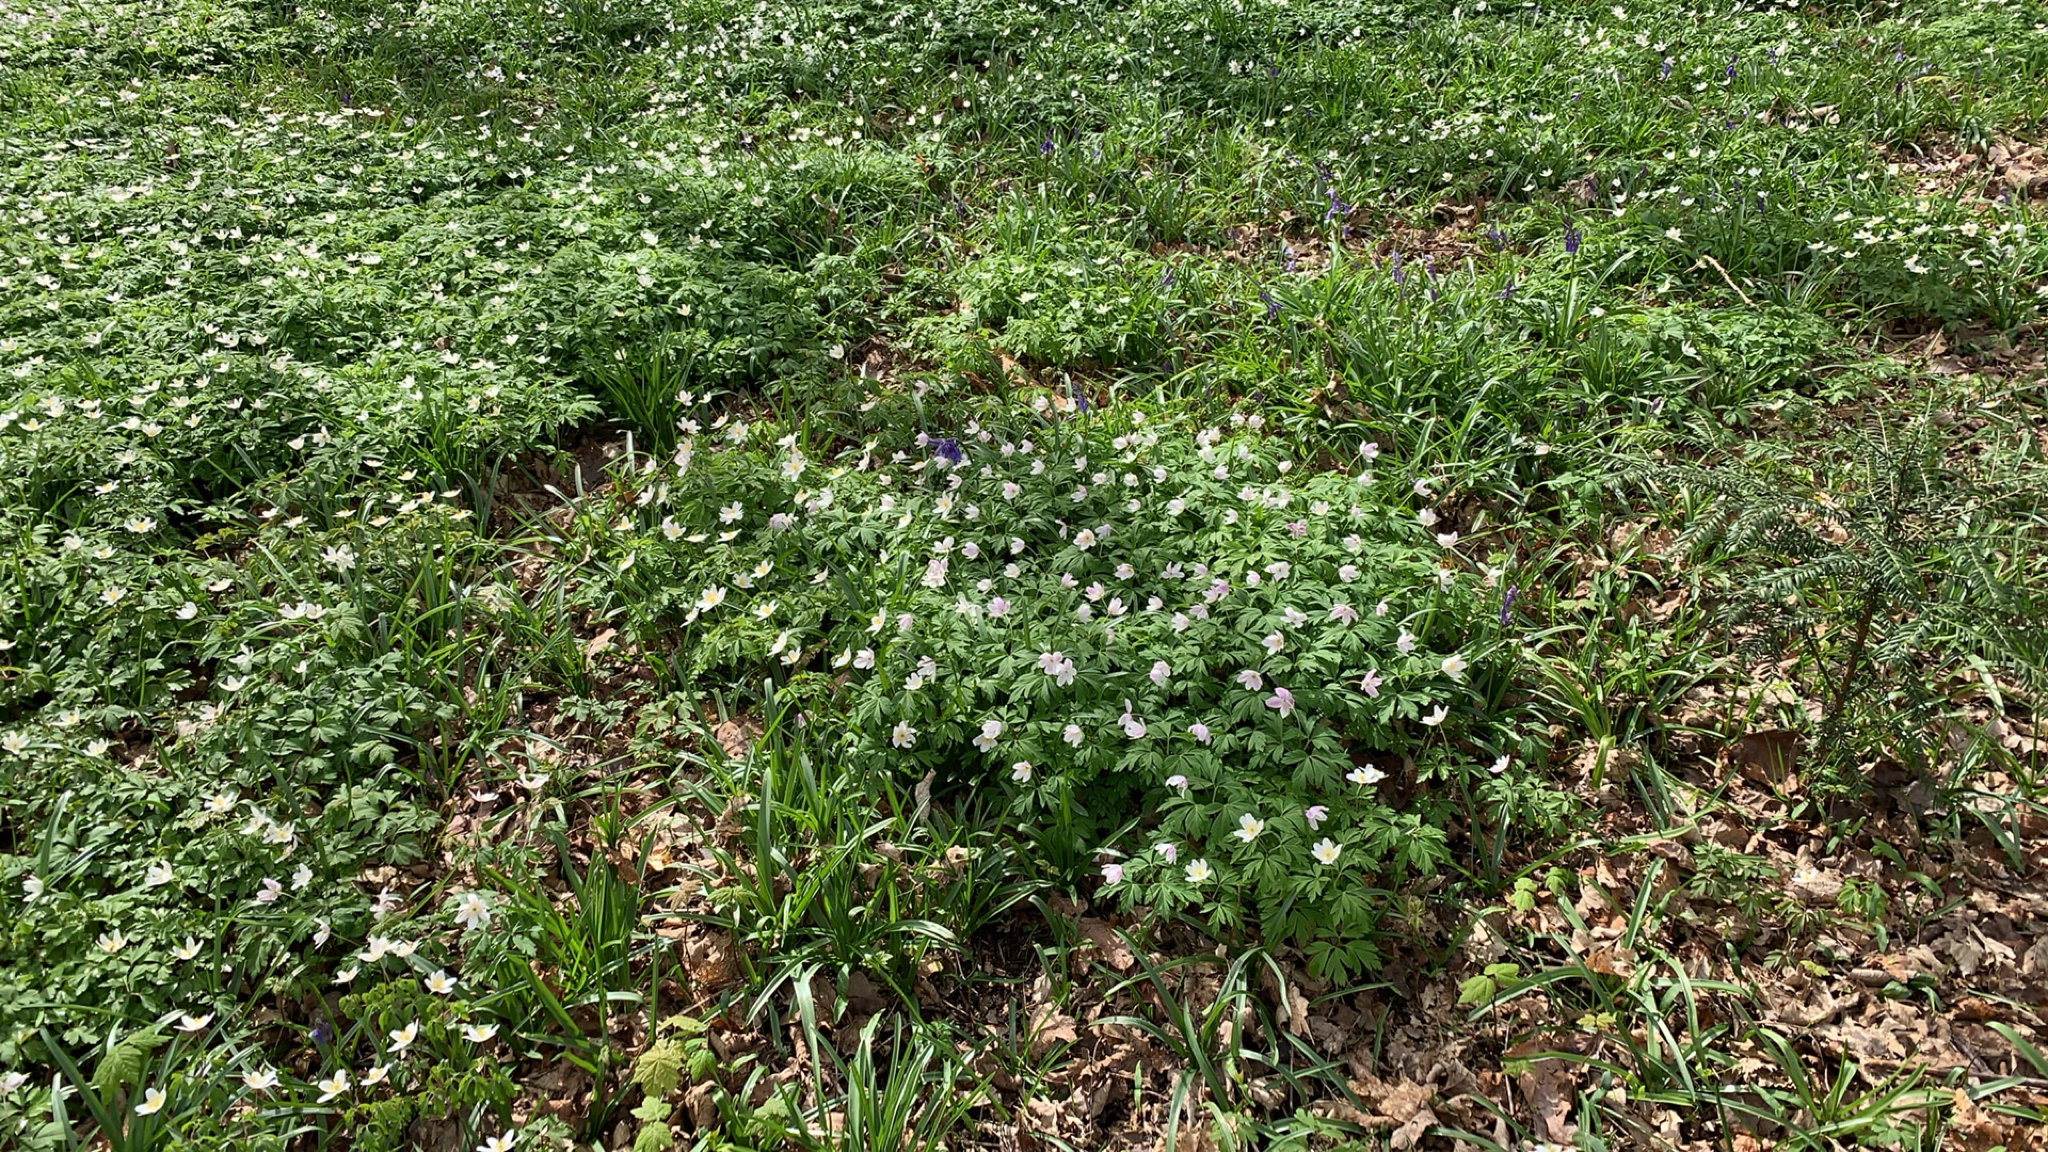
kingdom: Plantae
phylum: Tracheophyta
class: Magnoliopsida
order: Ranunculales
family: Ranunculaceae
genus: Anemone
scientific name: Anemone nemorosa
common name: Wood anemone
